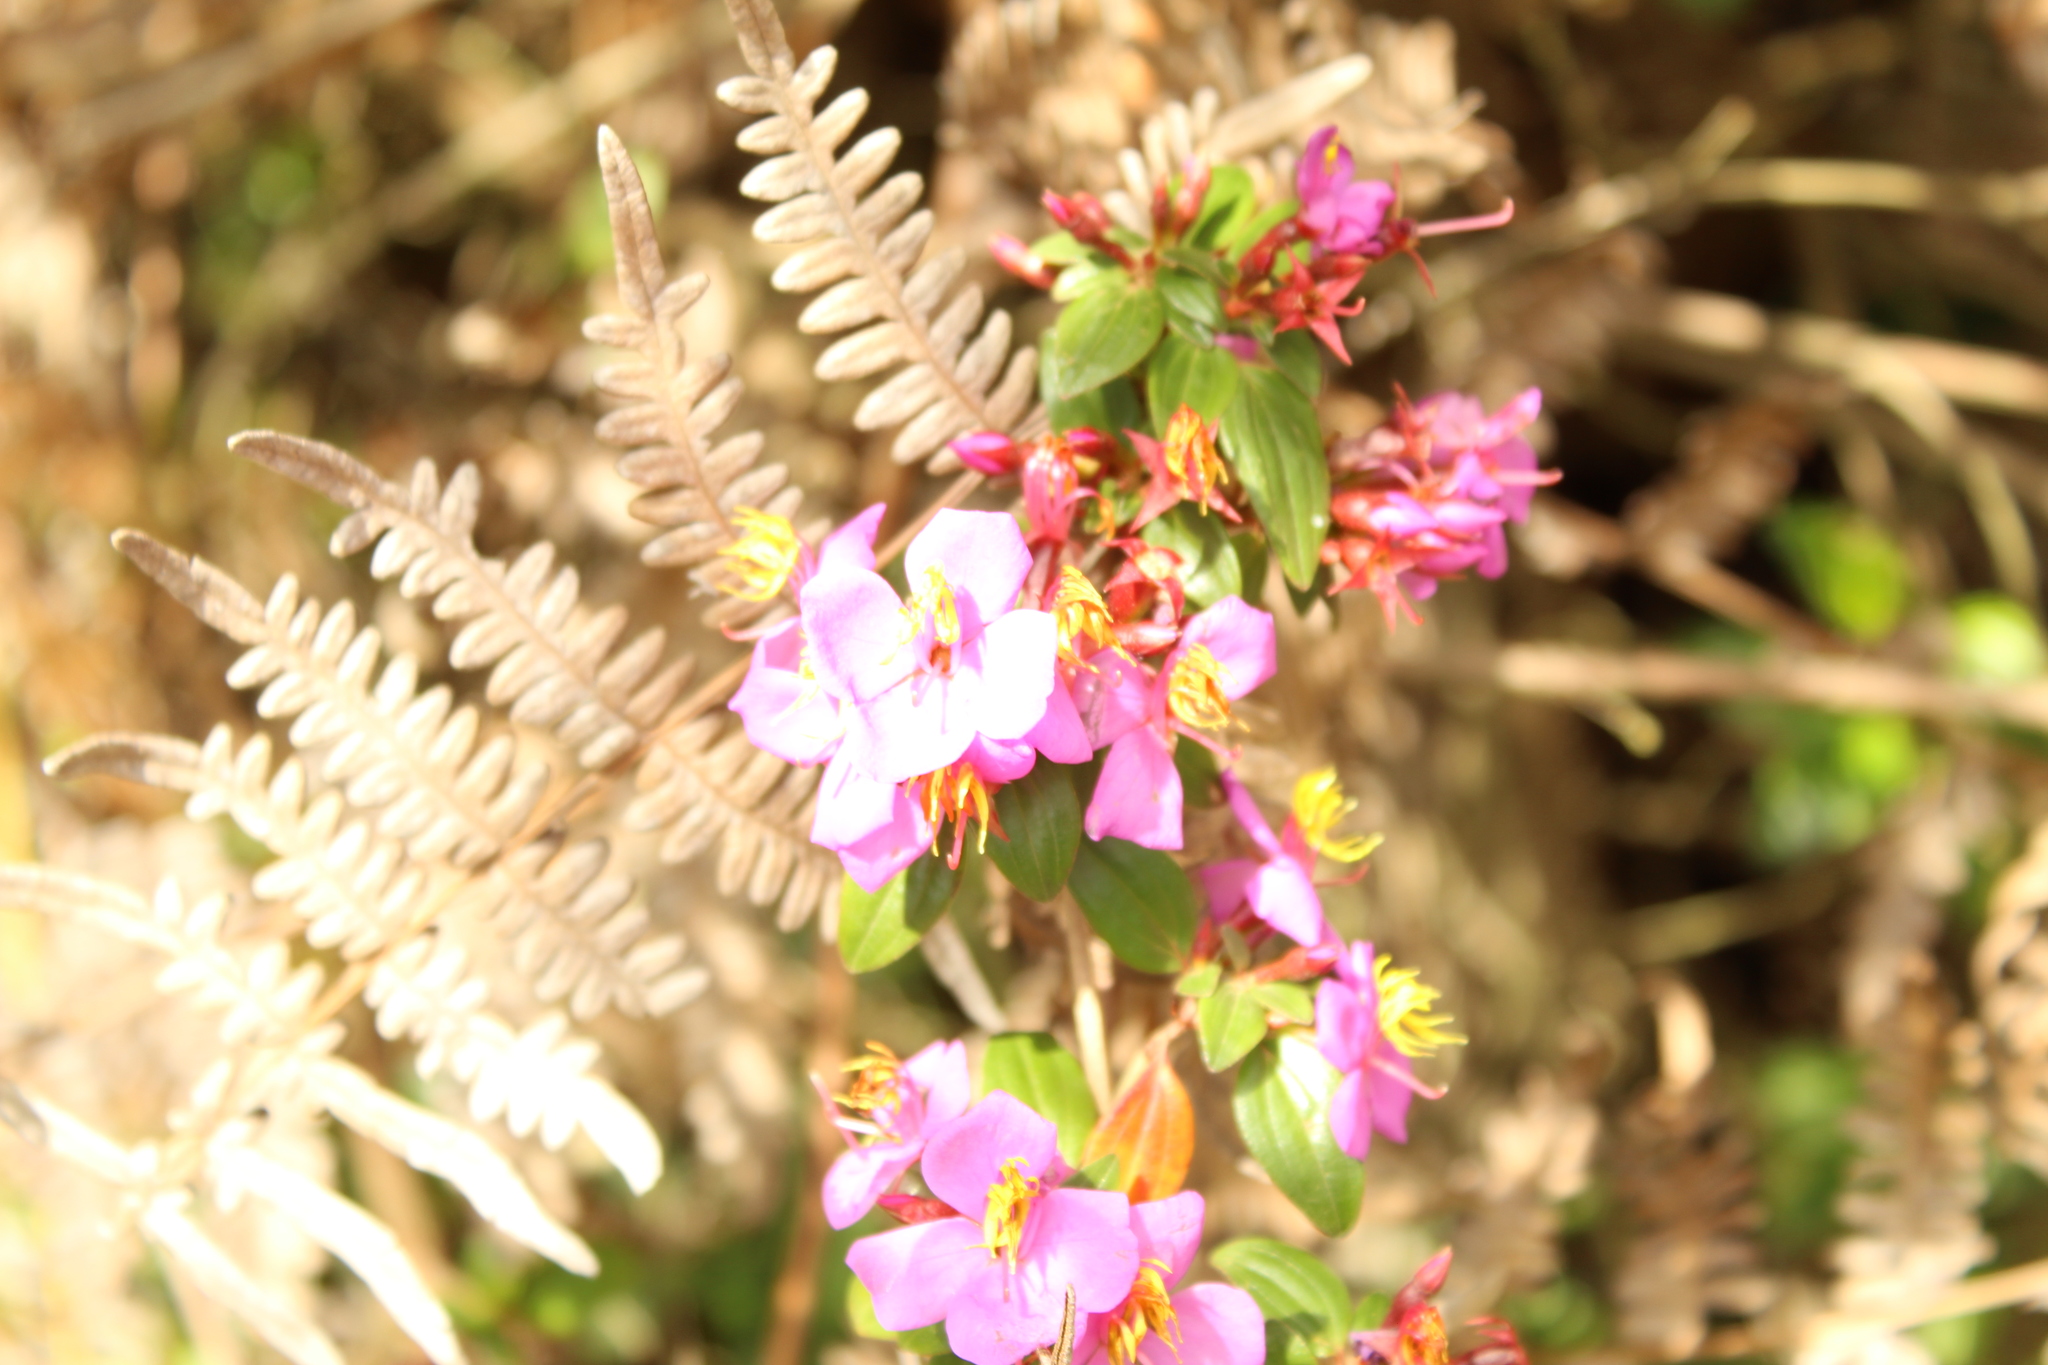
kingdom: Plantae
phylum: Tracheophyta
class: Magnoliopsida
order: Myrtales
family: Melastomataceae
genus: Monochaetum
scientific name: Monochaetum myrtoideum
